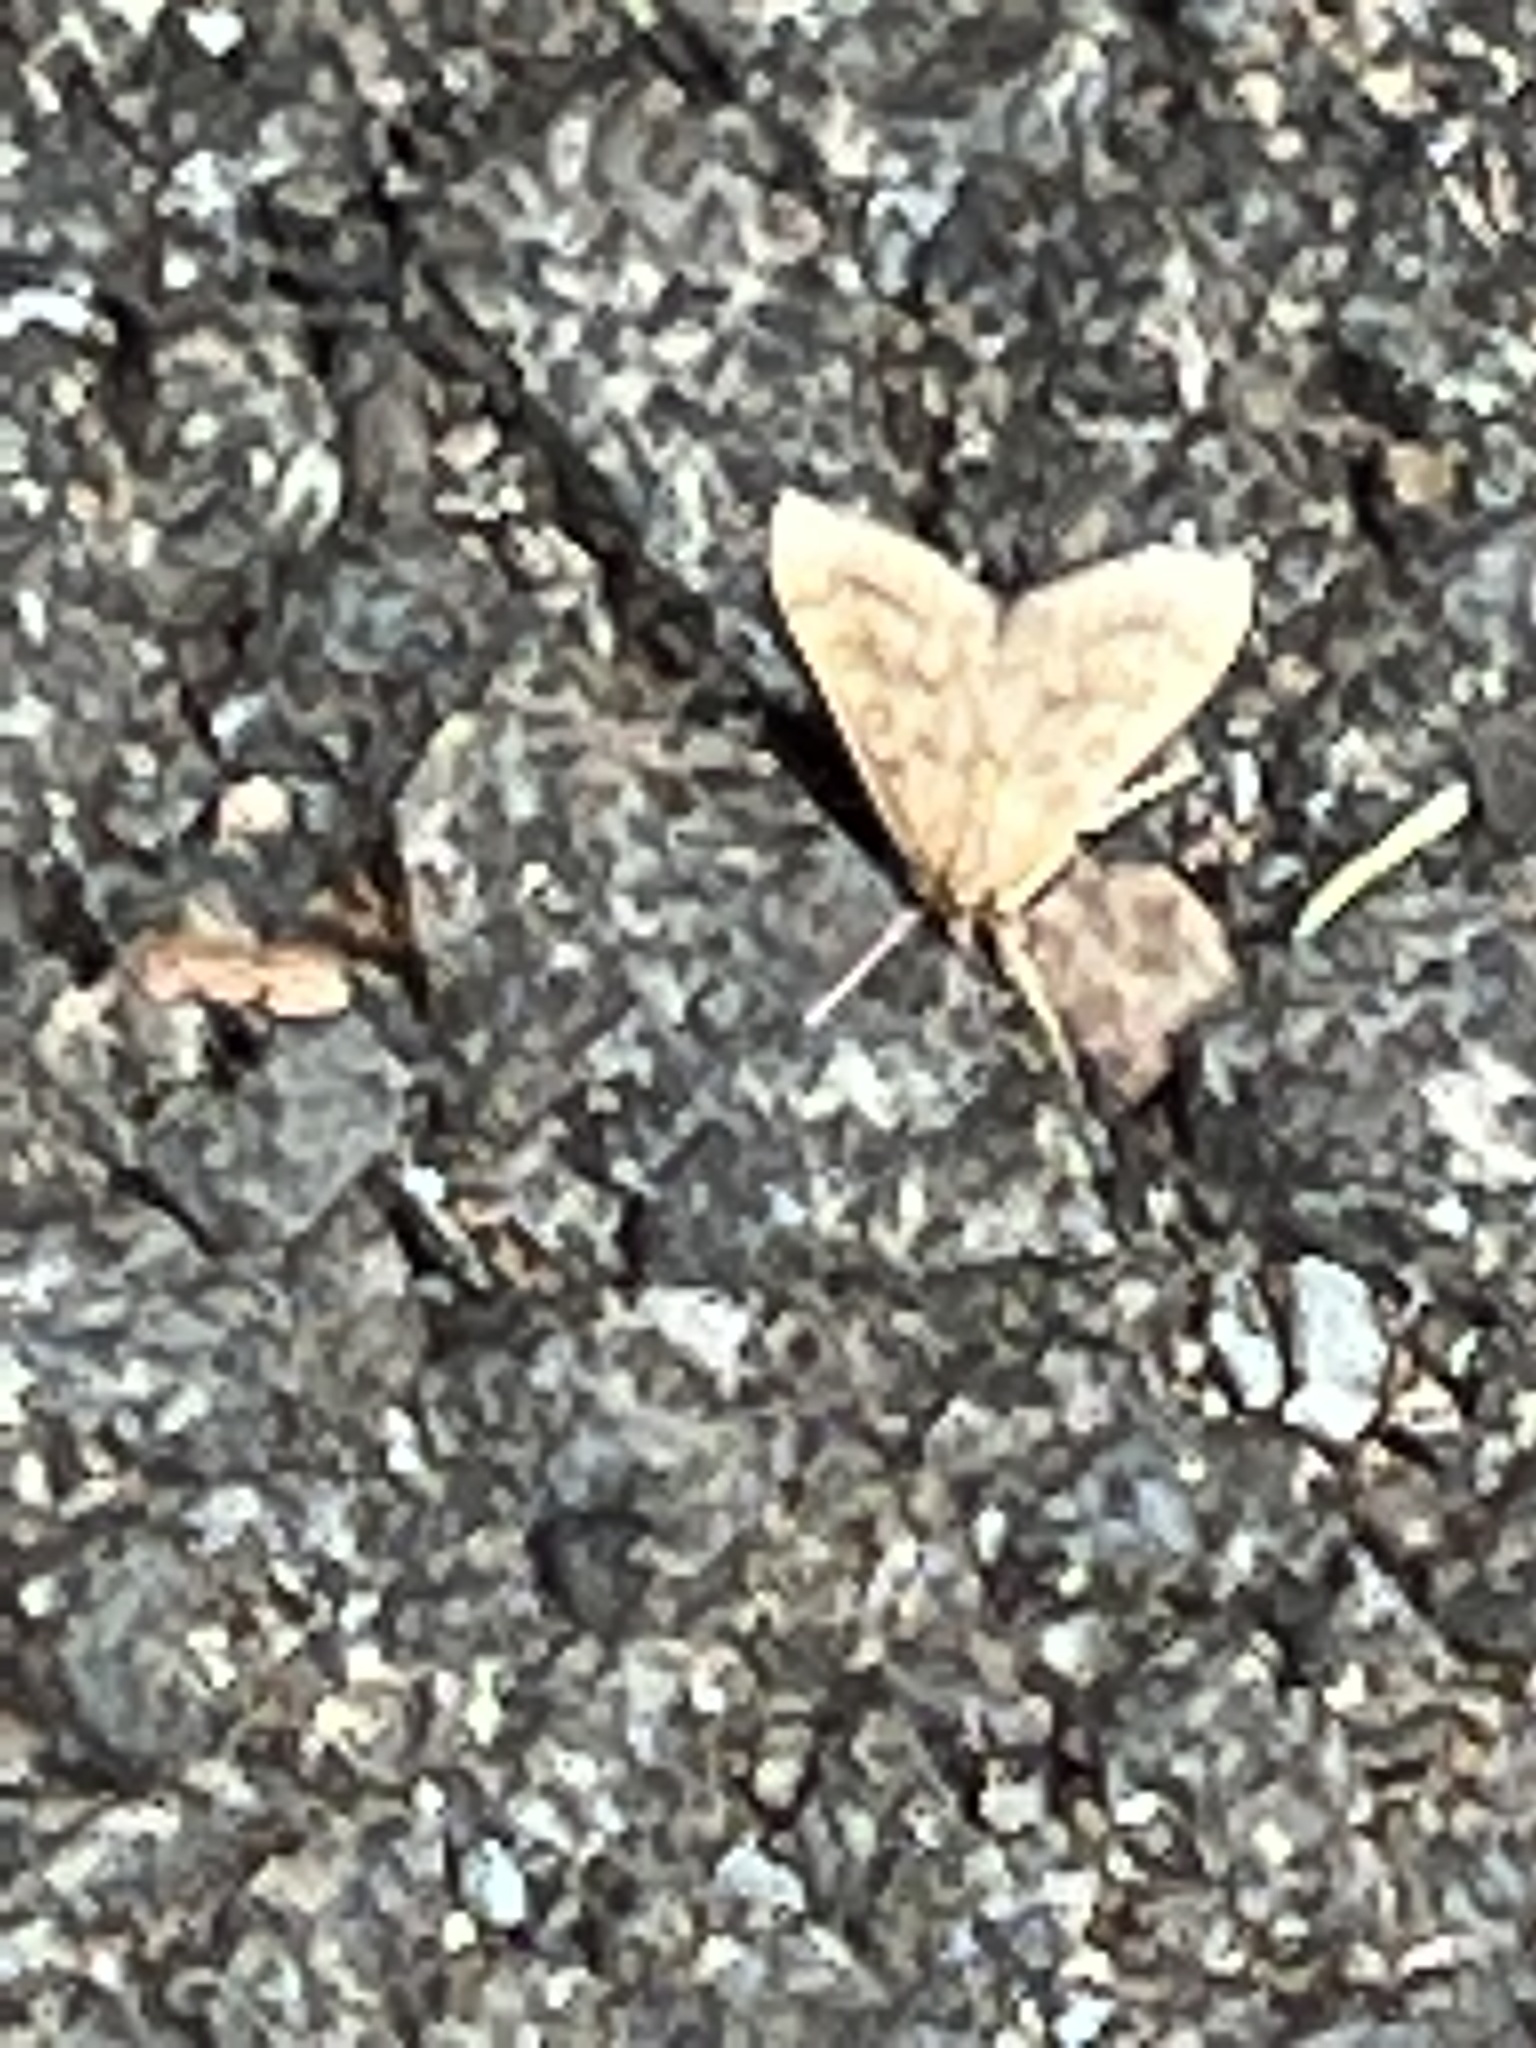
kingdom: Animalia
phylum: Arthropoda
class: Insecta
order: Lepidoptera
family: Crambidae
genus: Udea
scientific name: Udea rubigalis
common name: Celery leaftier moth
